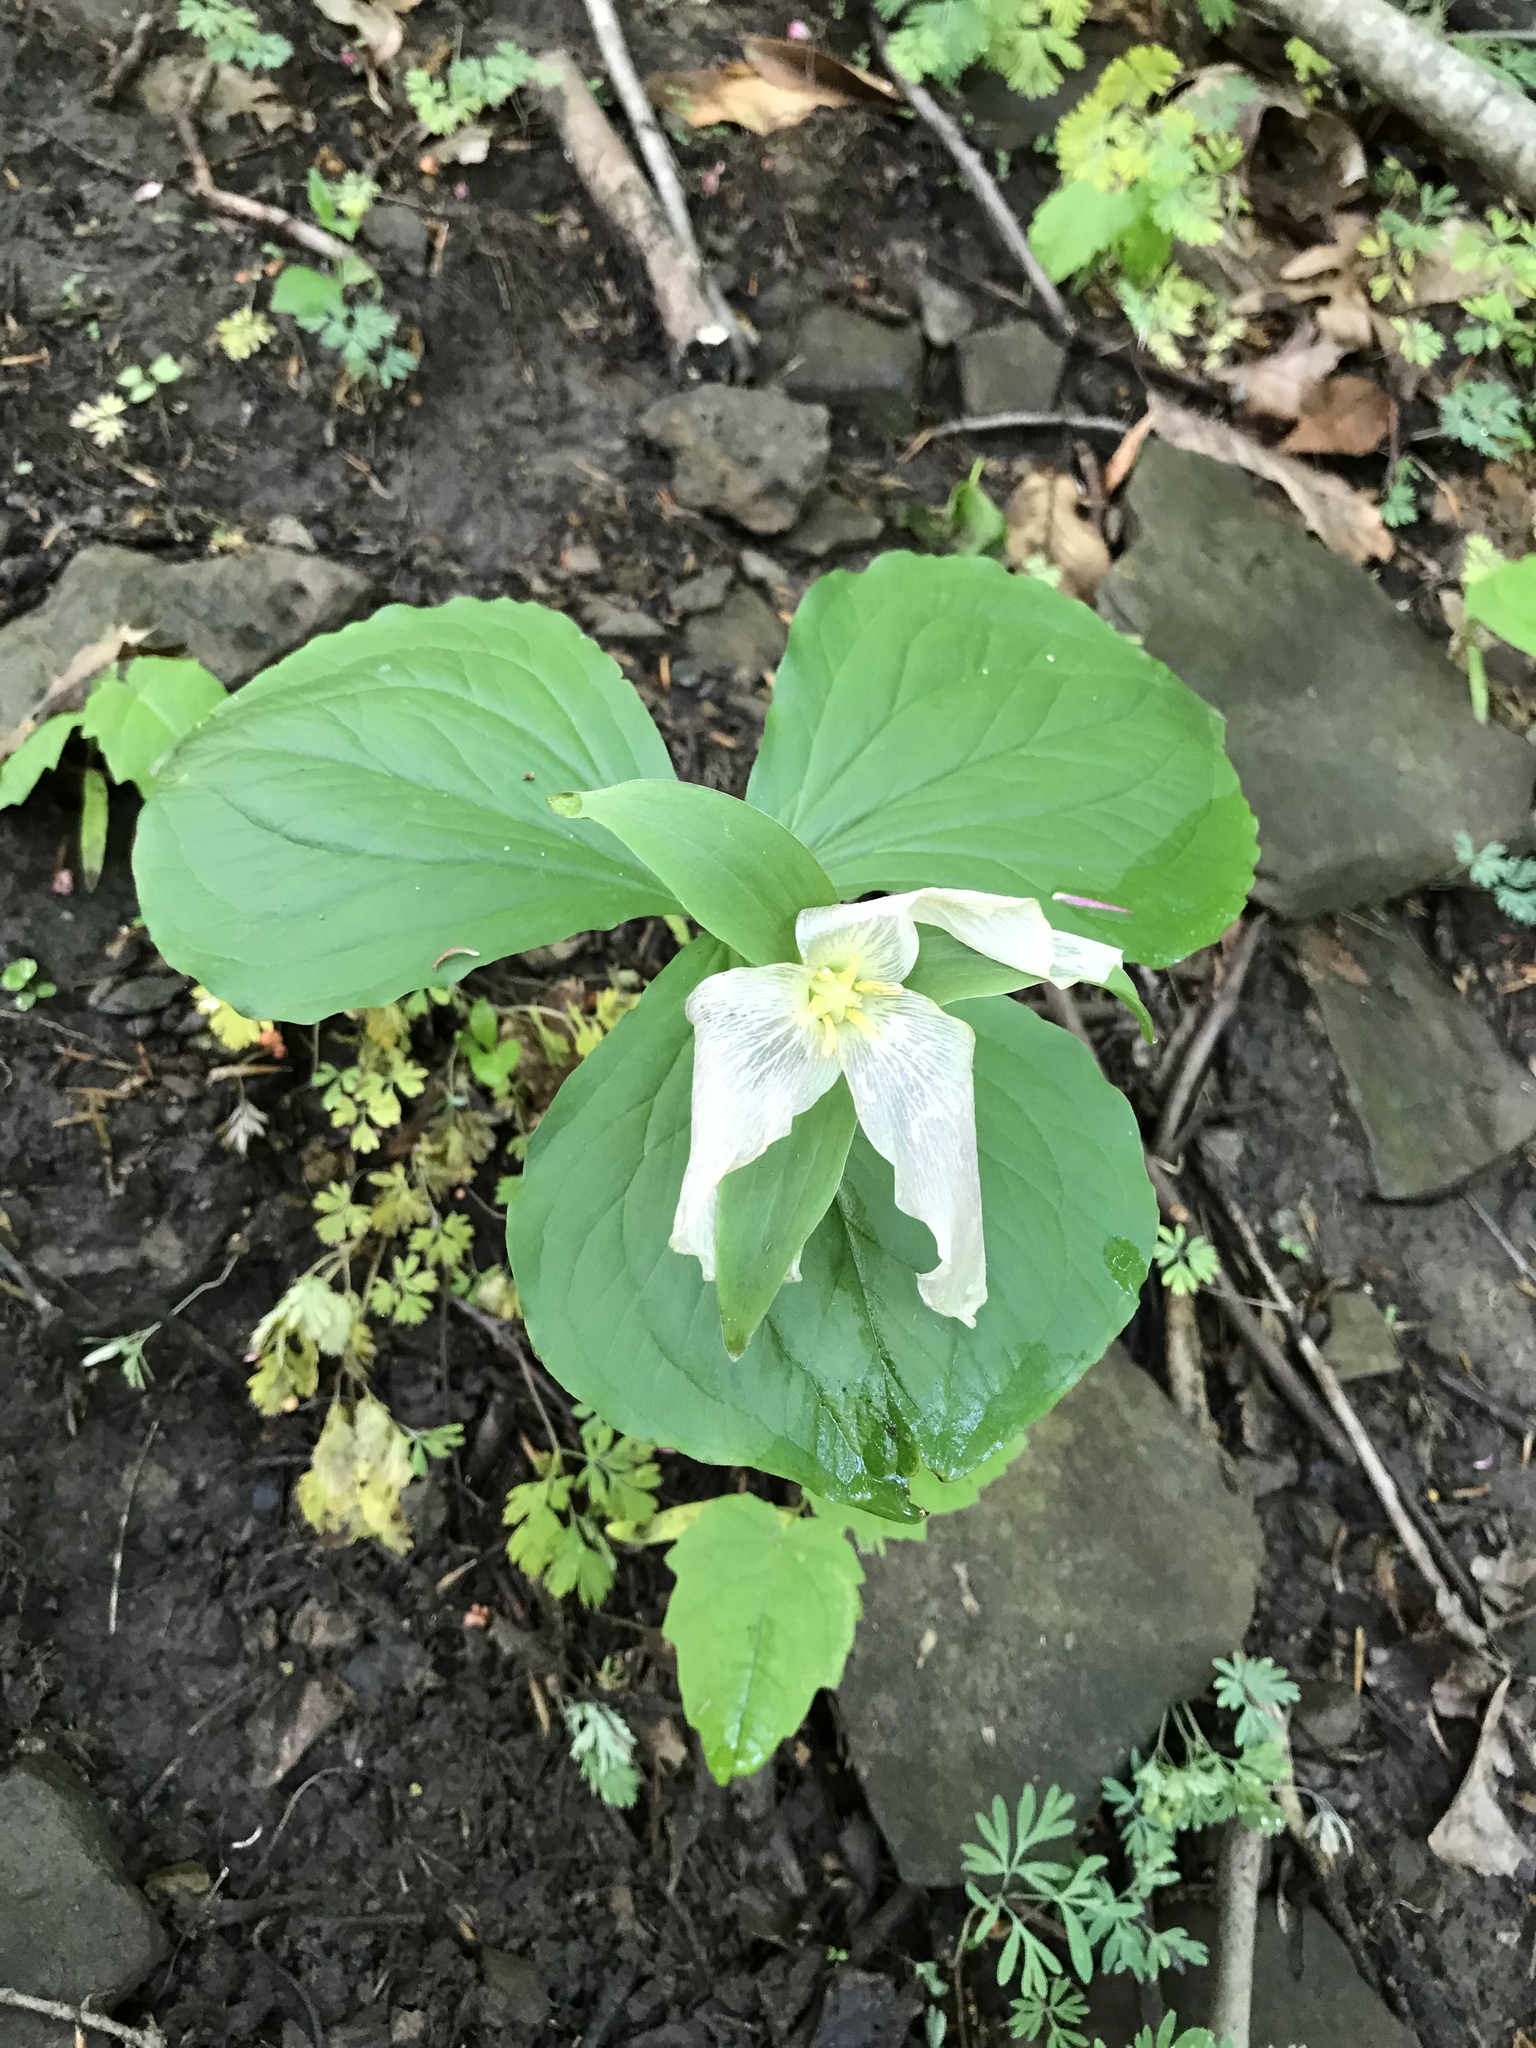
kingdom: Plantae
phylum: Tracheophyta
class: Liliopsida
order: Liliales
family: Melanthiaceae
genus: Trillium
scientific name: Trillium grandiflorum
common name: Great white trillium
